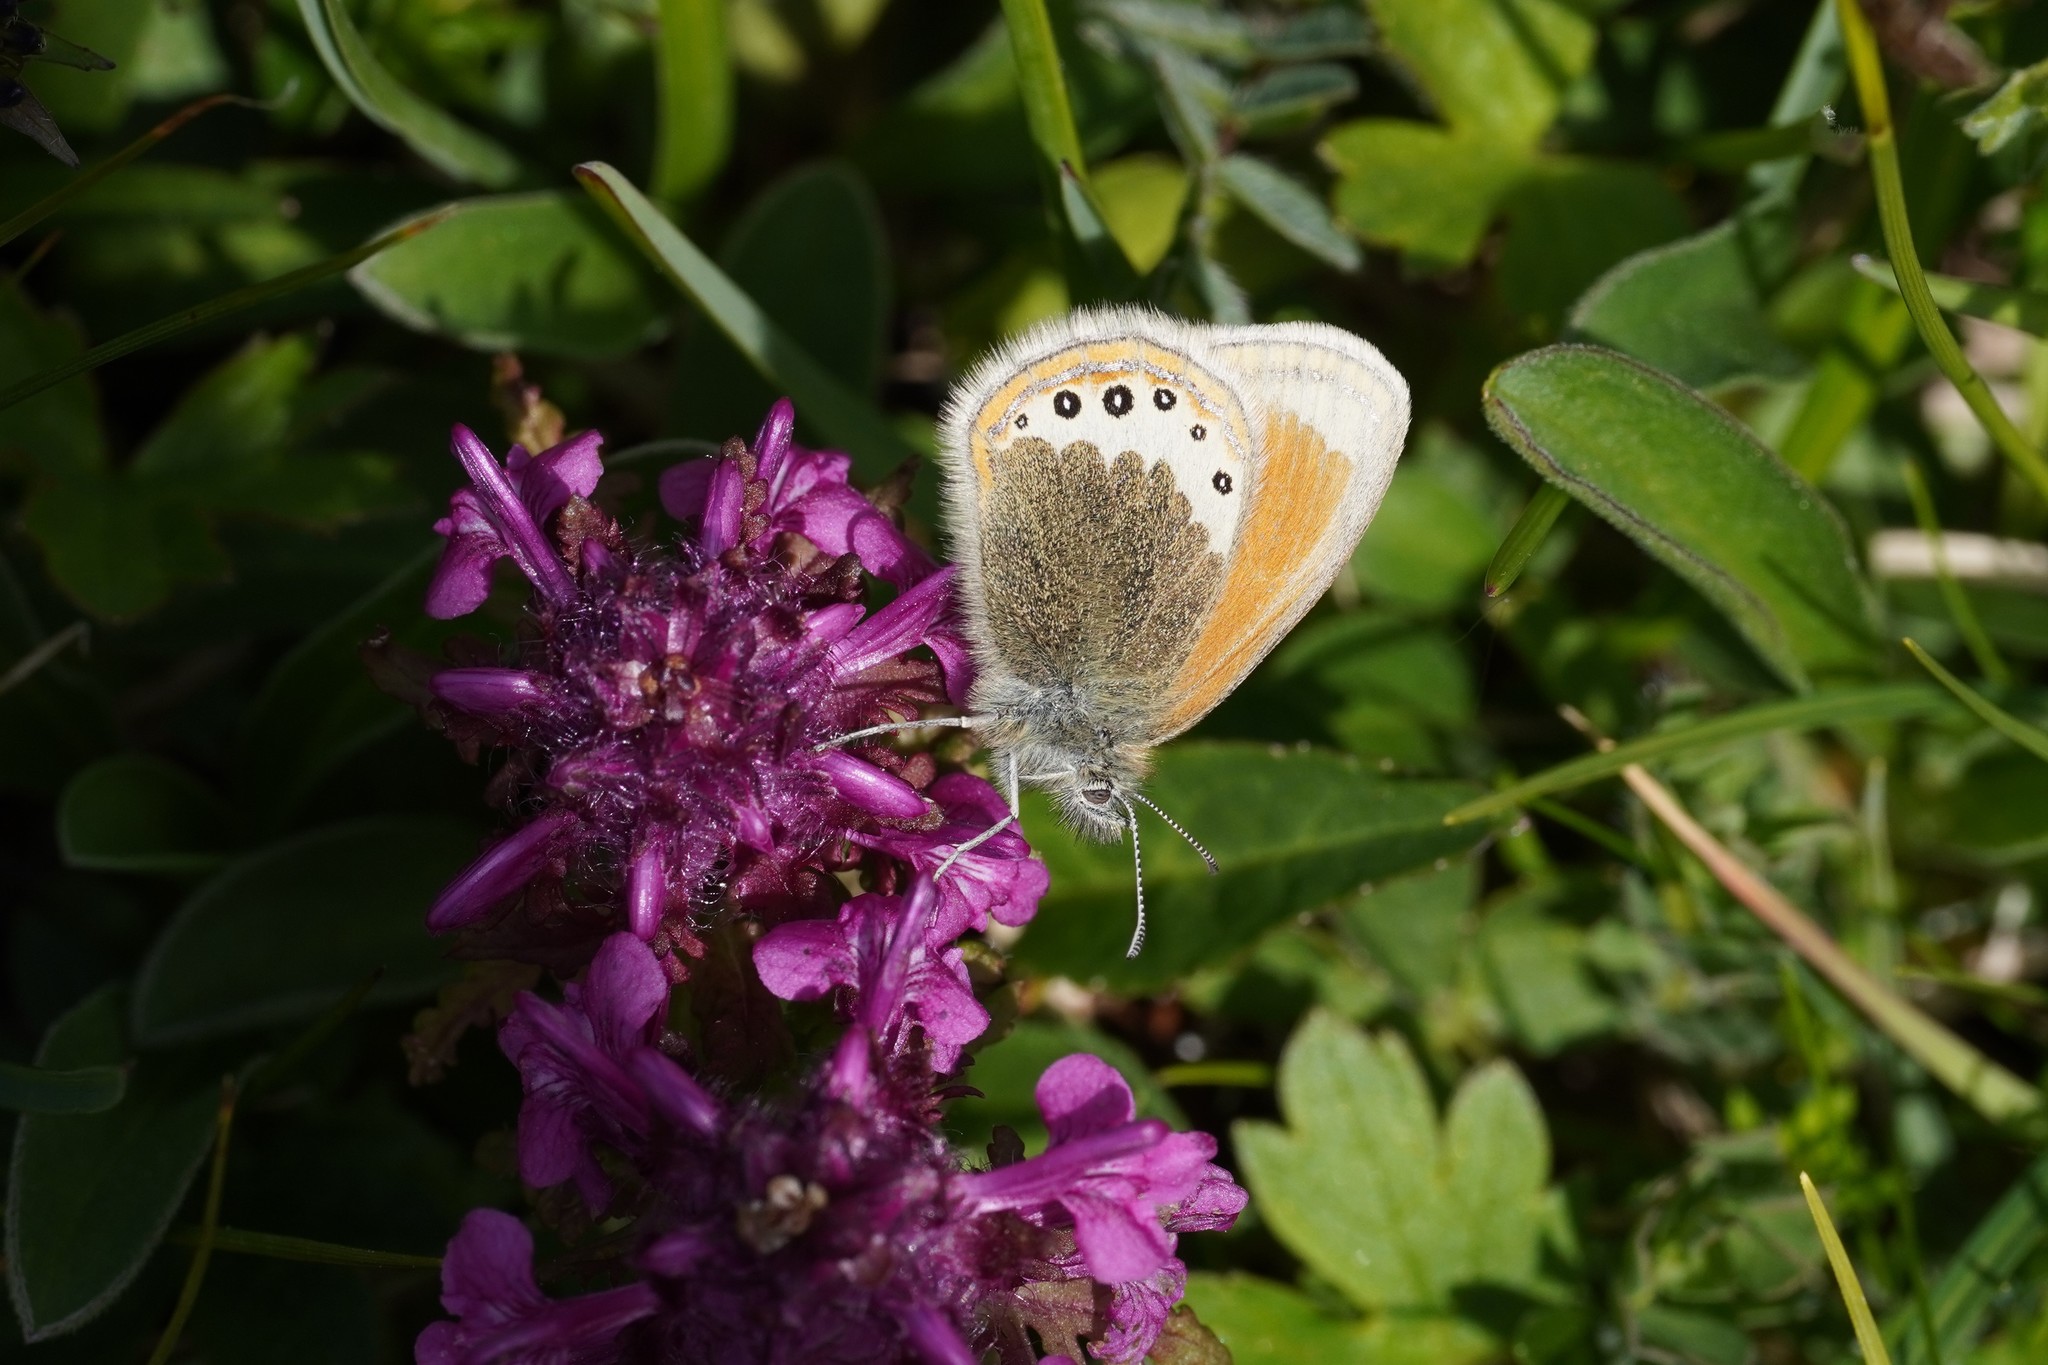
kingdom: Animalia
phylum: Arthropoda
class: Insecta
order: Lepidoptera
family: Nymphalidae
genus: Coenonympha
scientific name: Coenonympha
